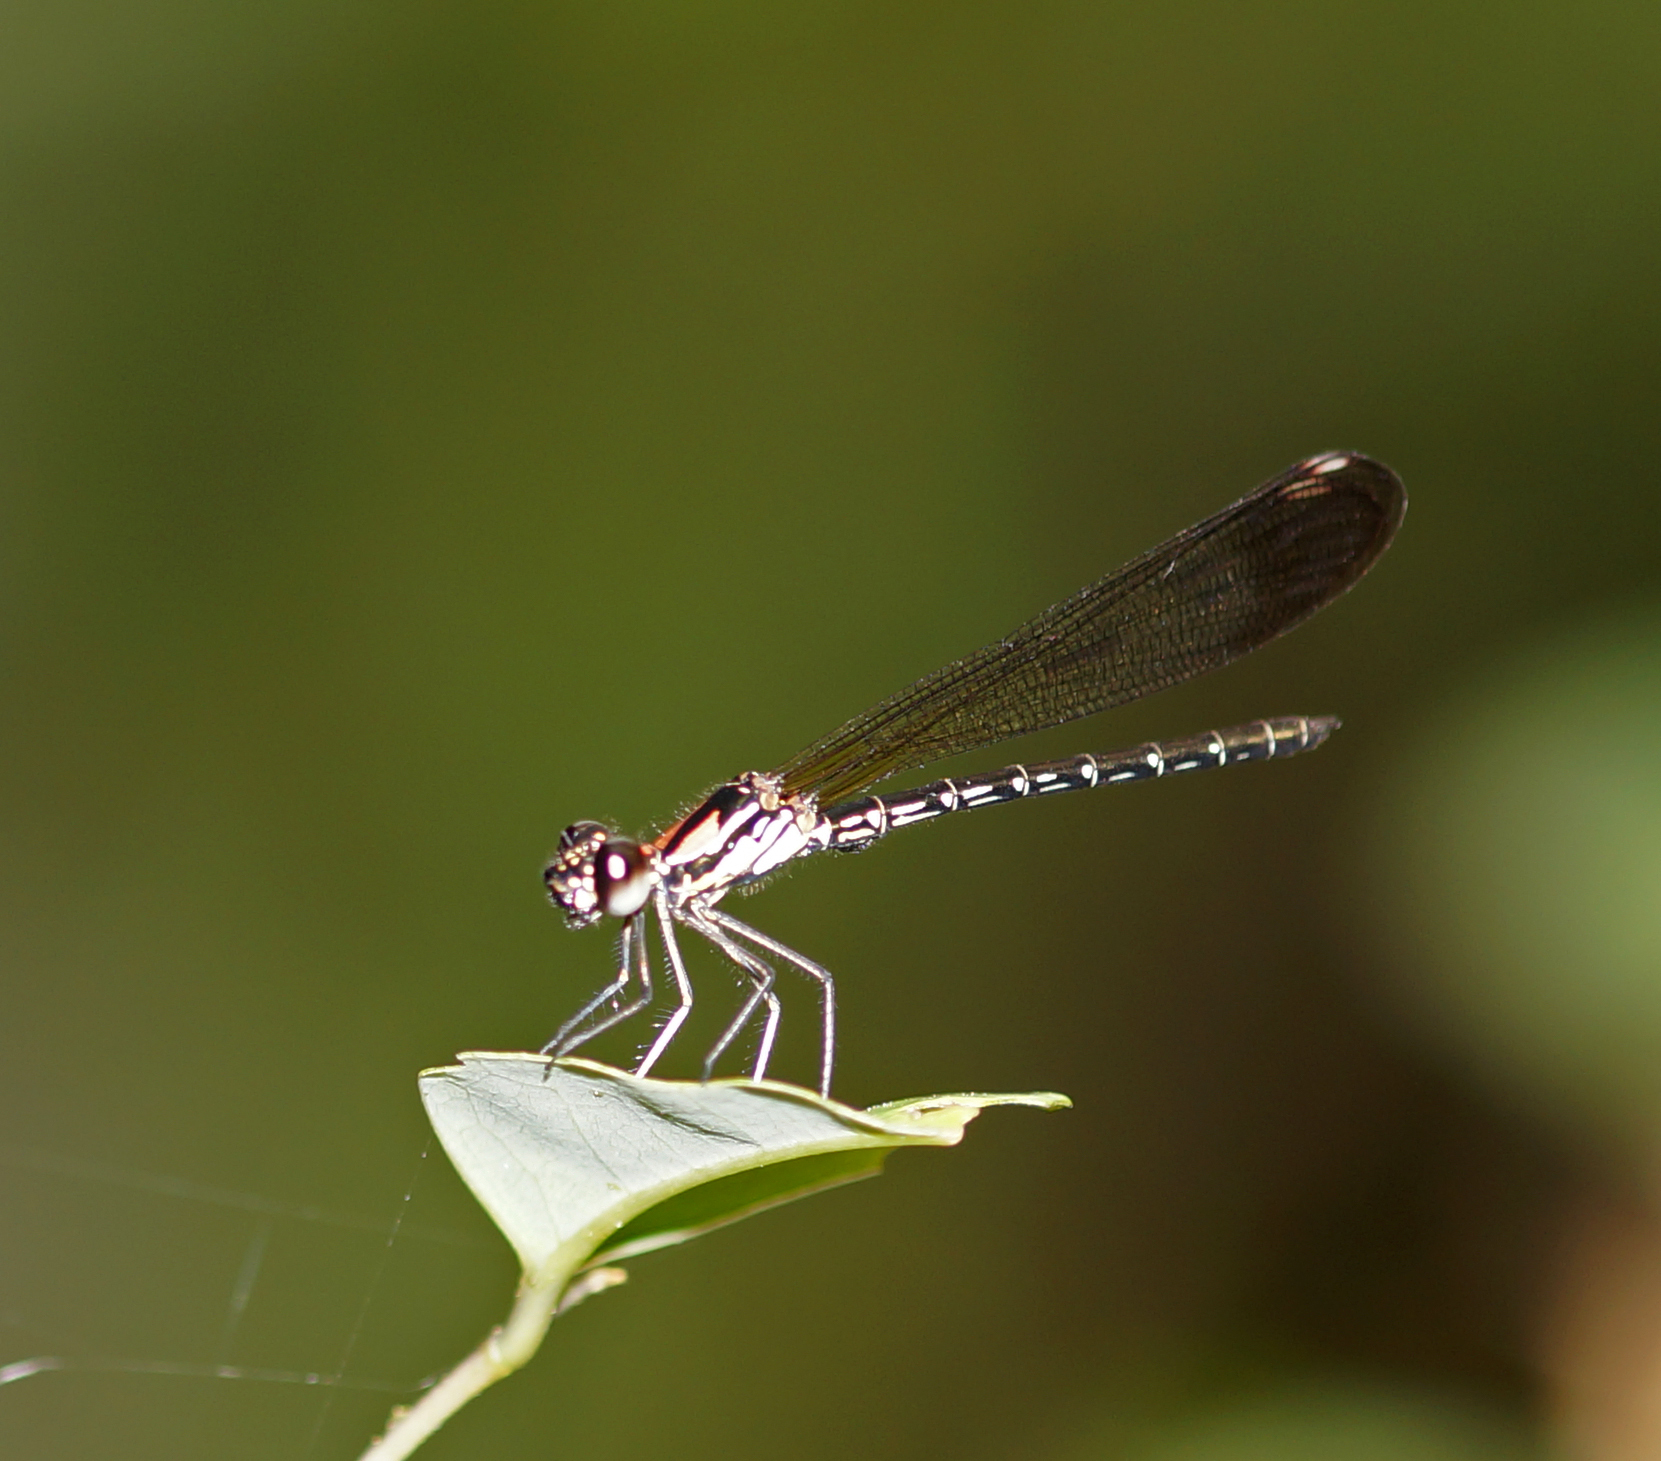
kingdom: Animalia
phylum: Arthropoda
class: Insecta
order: Odonata
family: Chlorocyphidae
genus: Heliocypha
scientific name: Heliocypha biforata
